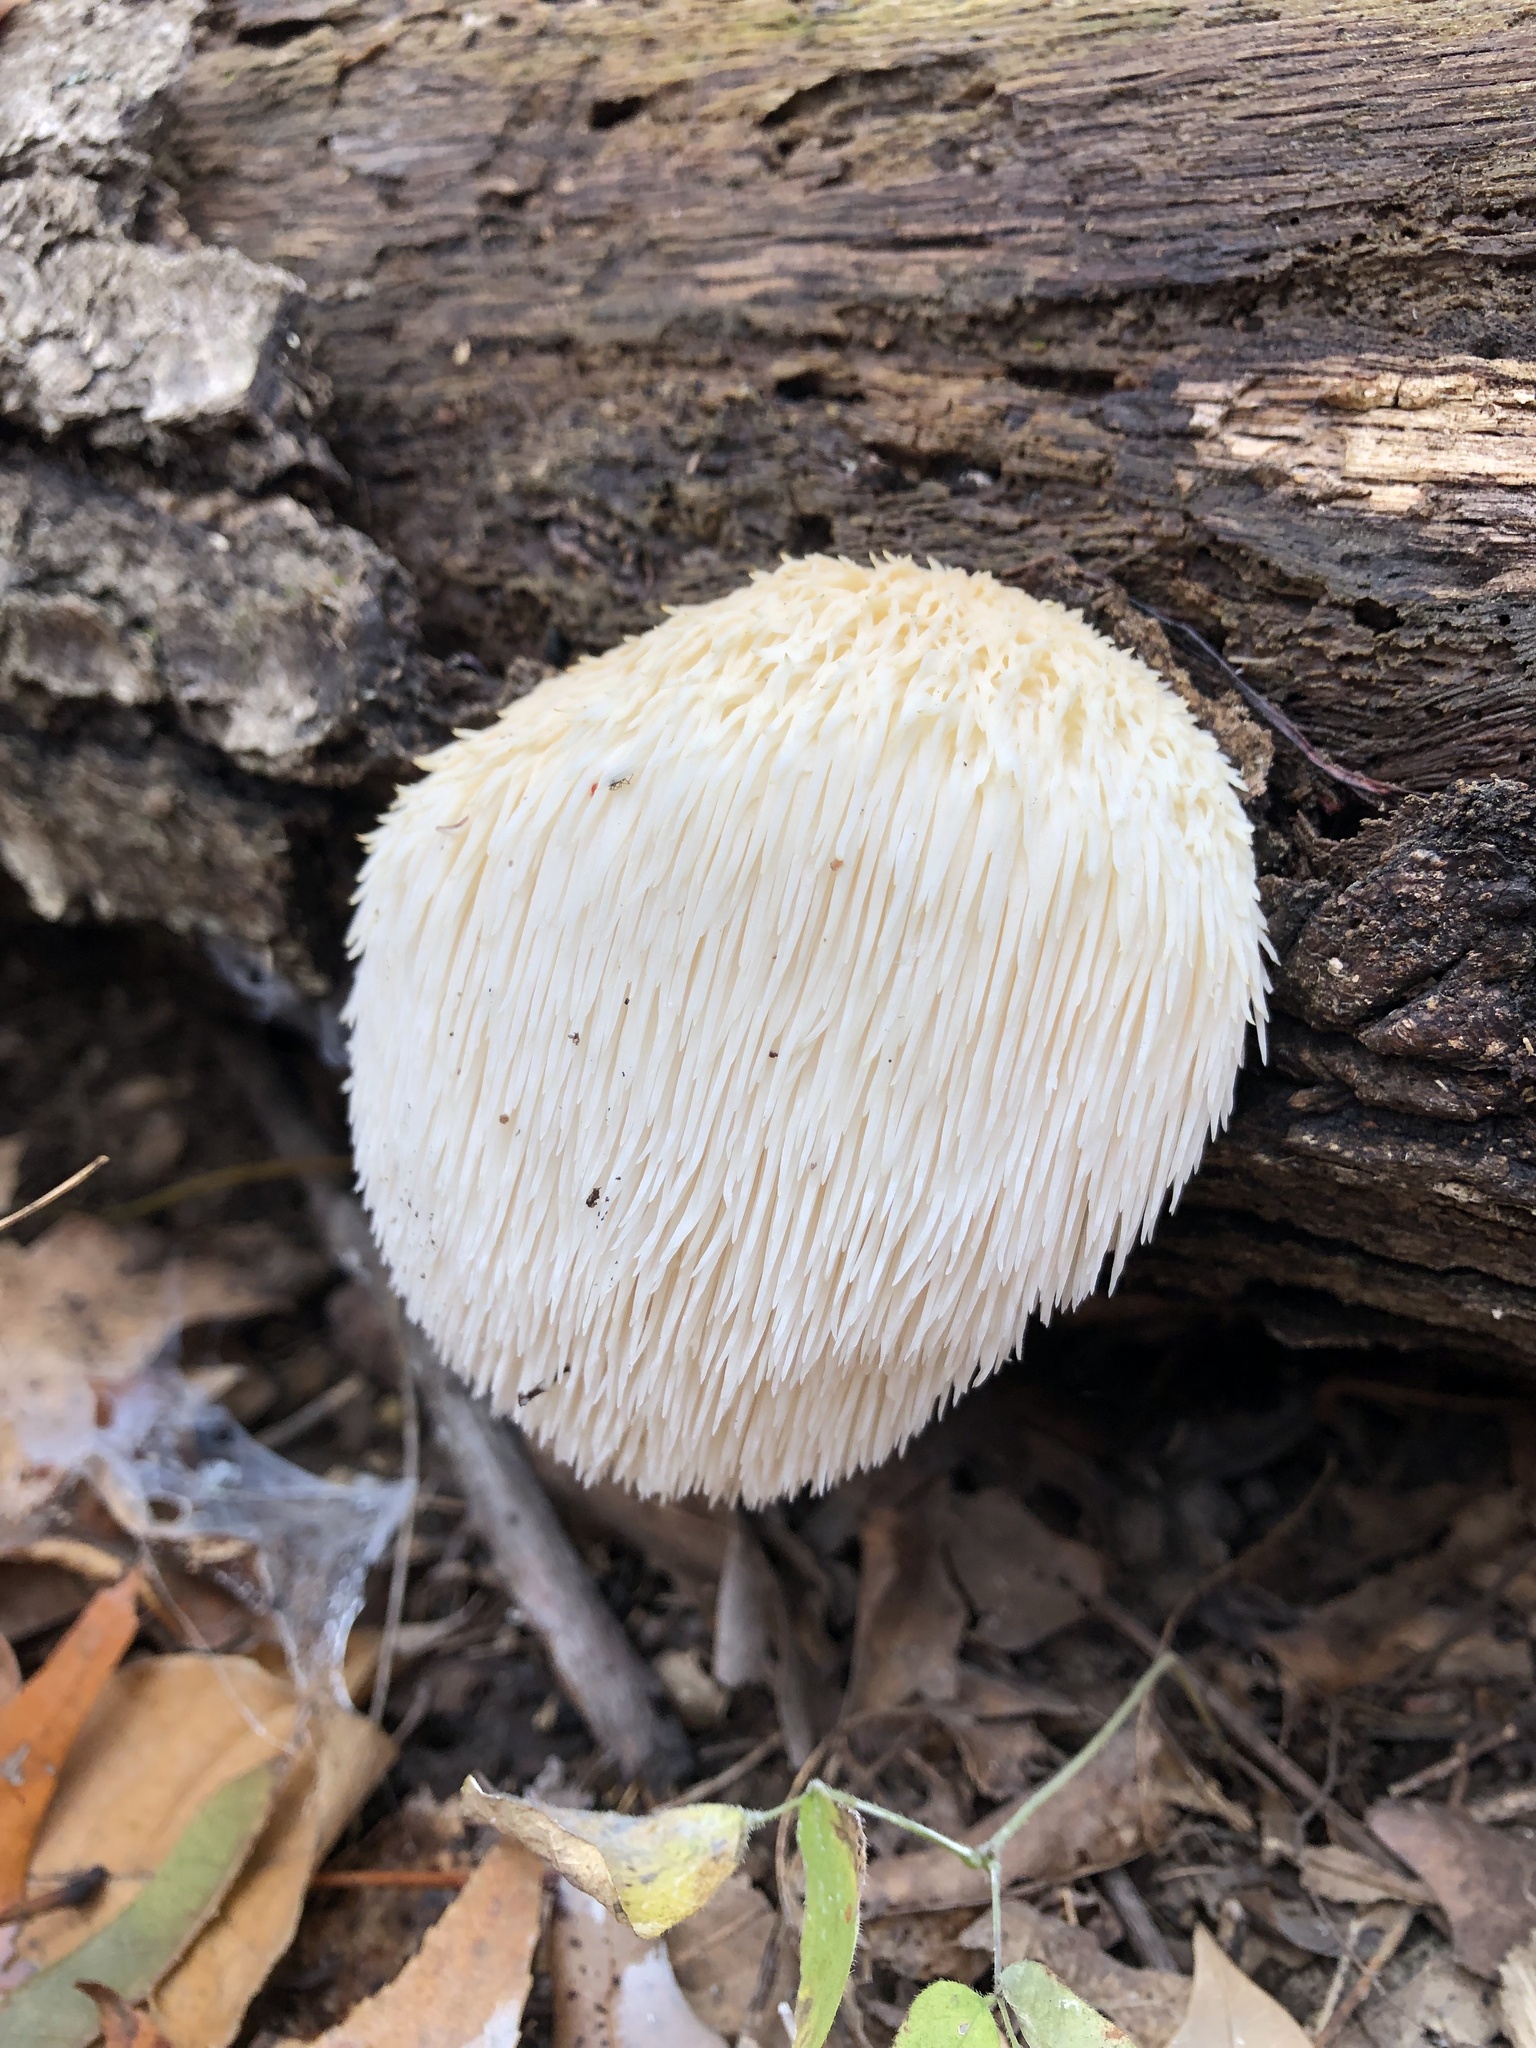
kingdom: Fungi
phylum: Basidiomycota
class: Agaricomycetes
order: Russulales
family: Hericiaceae
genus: Hericium
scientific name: Hericium erinaceus
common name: Bearded tooth
